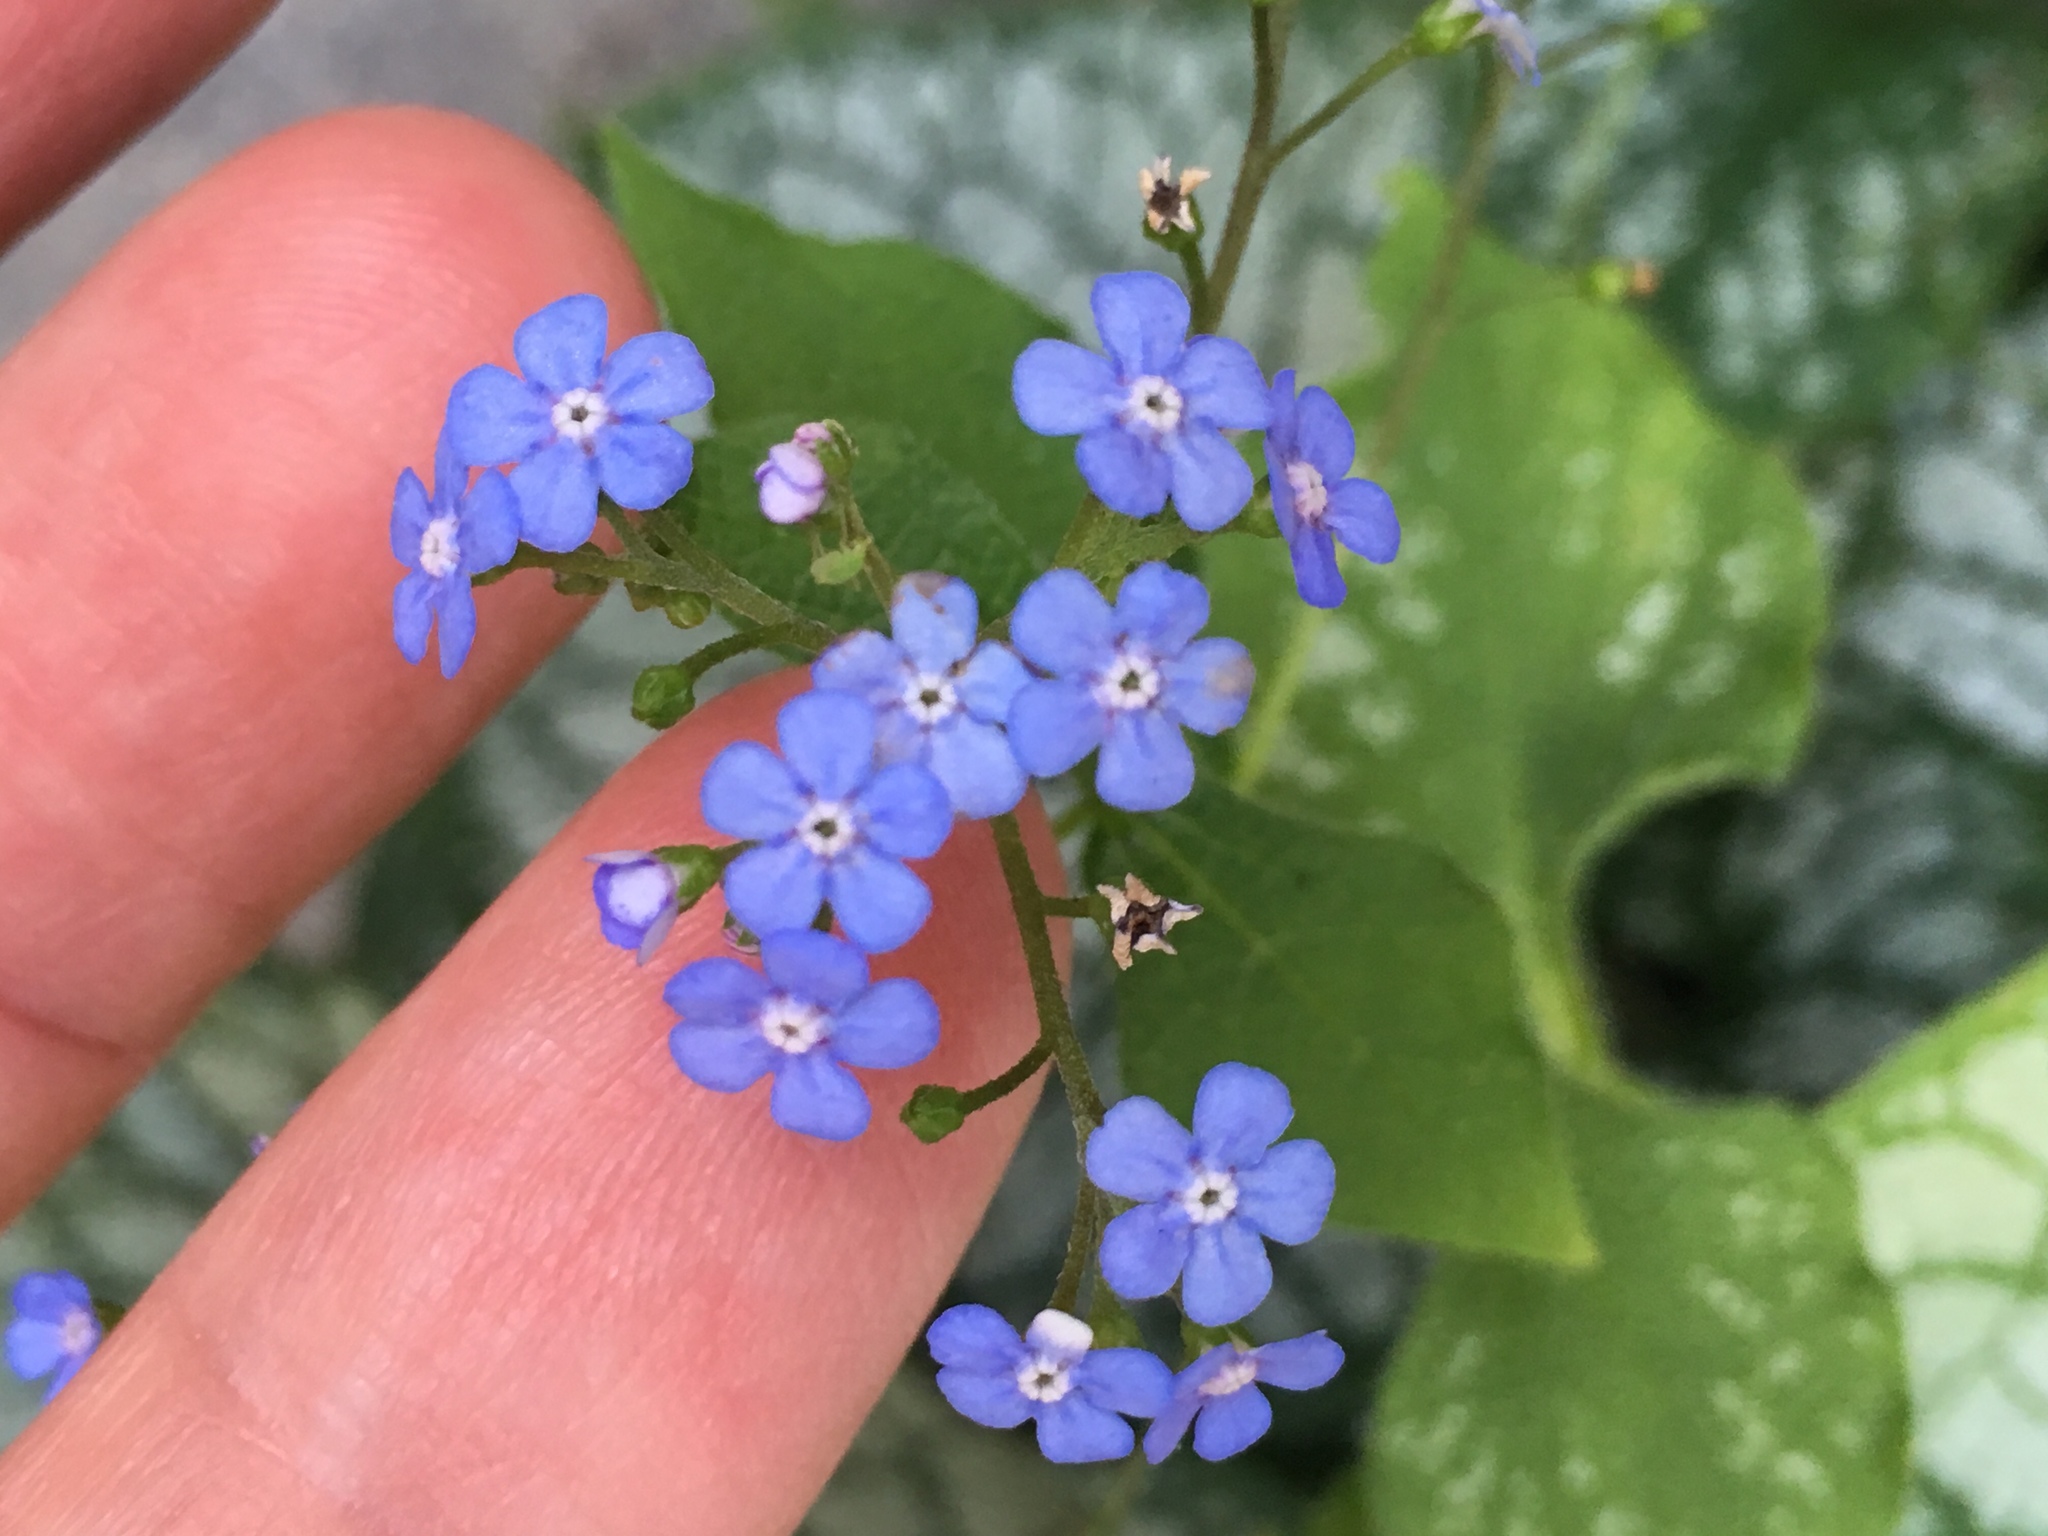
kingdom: Plantae
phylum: Tracheophyta
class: Magnoliopsida
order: Boraginales
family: Boraginaceae
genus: Brunnera
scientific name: Brunnera macrophylla
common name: Great forget-me-not
